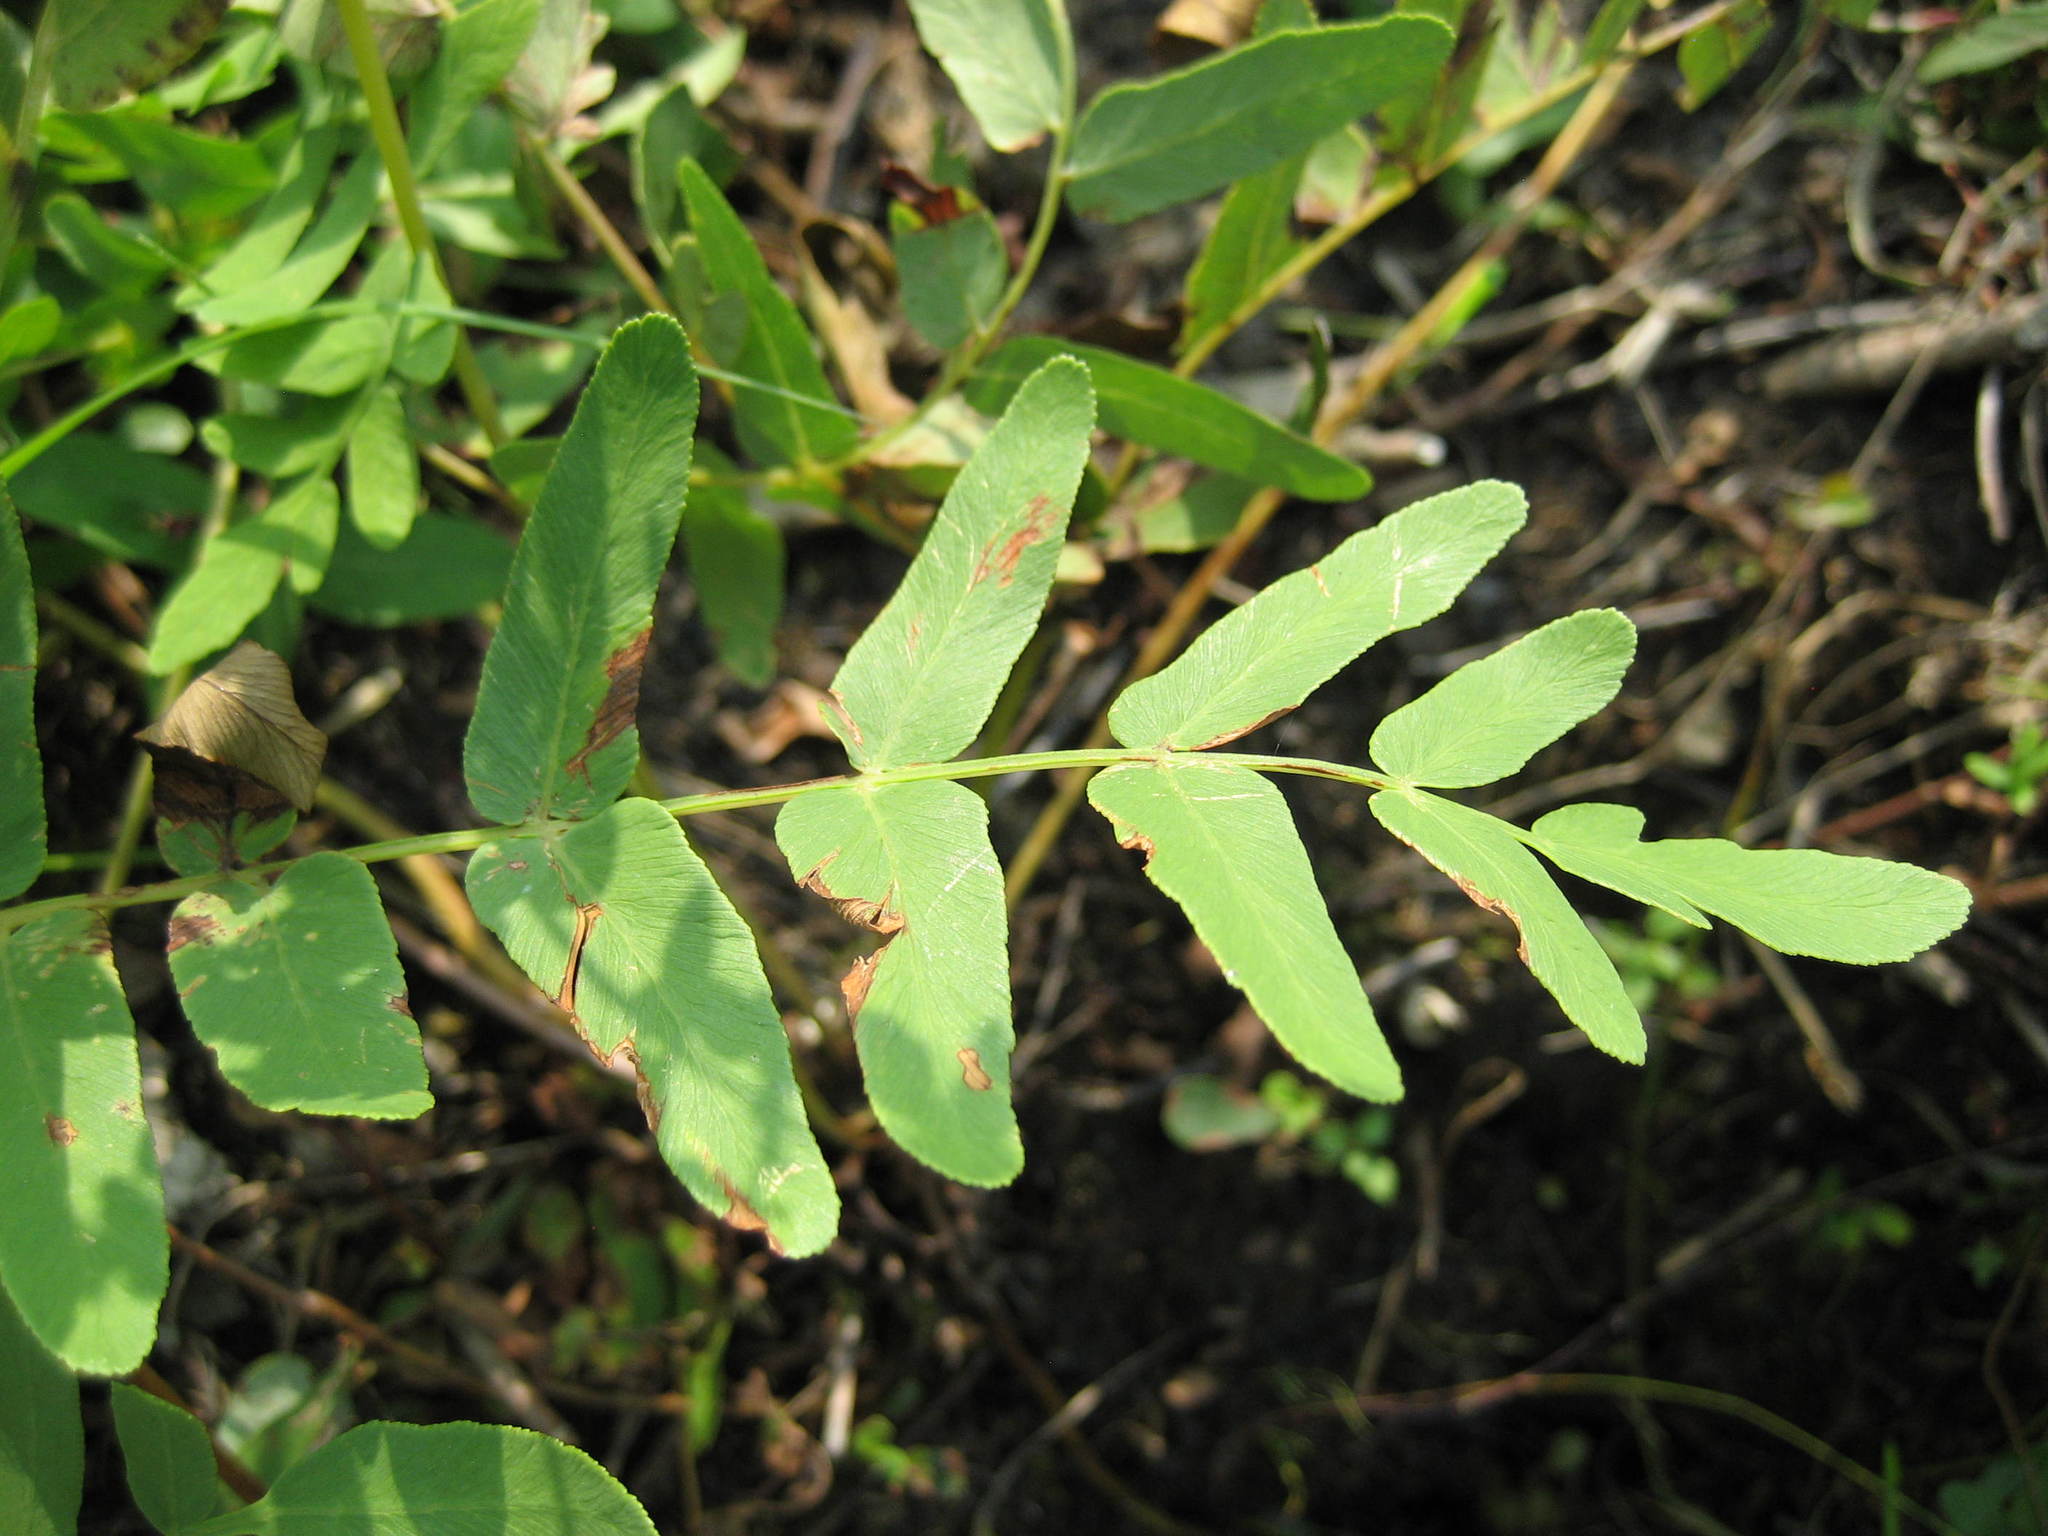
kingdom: Plantae
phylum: Tracheophyta
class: Polypodiopsida
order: Osmundales
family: Osmundaceae
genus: Osmunda
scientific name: Osmunda spectabilis
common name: American royal fern
